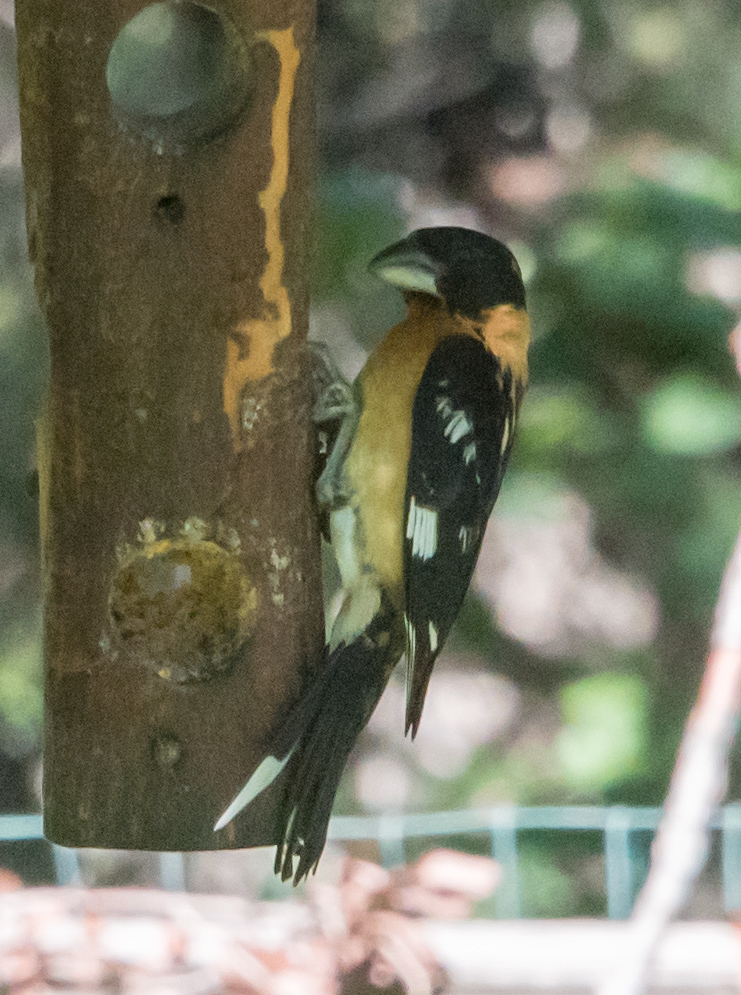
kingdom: Animalia
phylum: Chordata
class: Aves
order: Passeriformes
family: Cardinalidae
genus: Pheucticus
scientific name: Pheucticus melanocephalus
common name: Black-headed grosbeak
